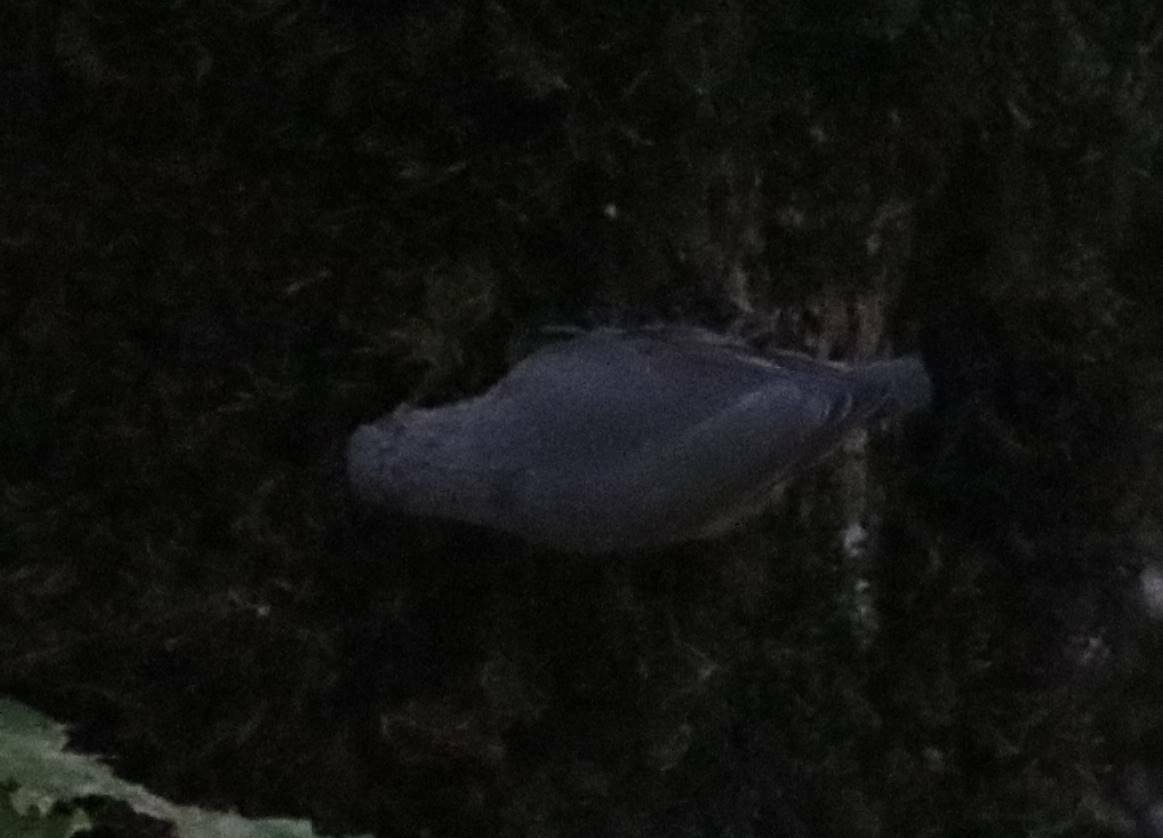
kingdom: Animalia
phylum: Chordata
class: Aves
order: Passeriformes
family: Sittidae
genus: Sitta
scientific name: Sitta ledanti
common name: Algerian nuthatch
